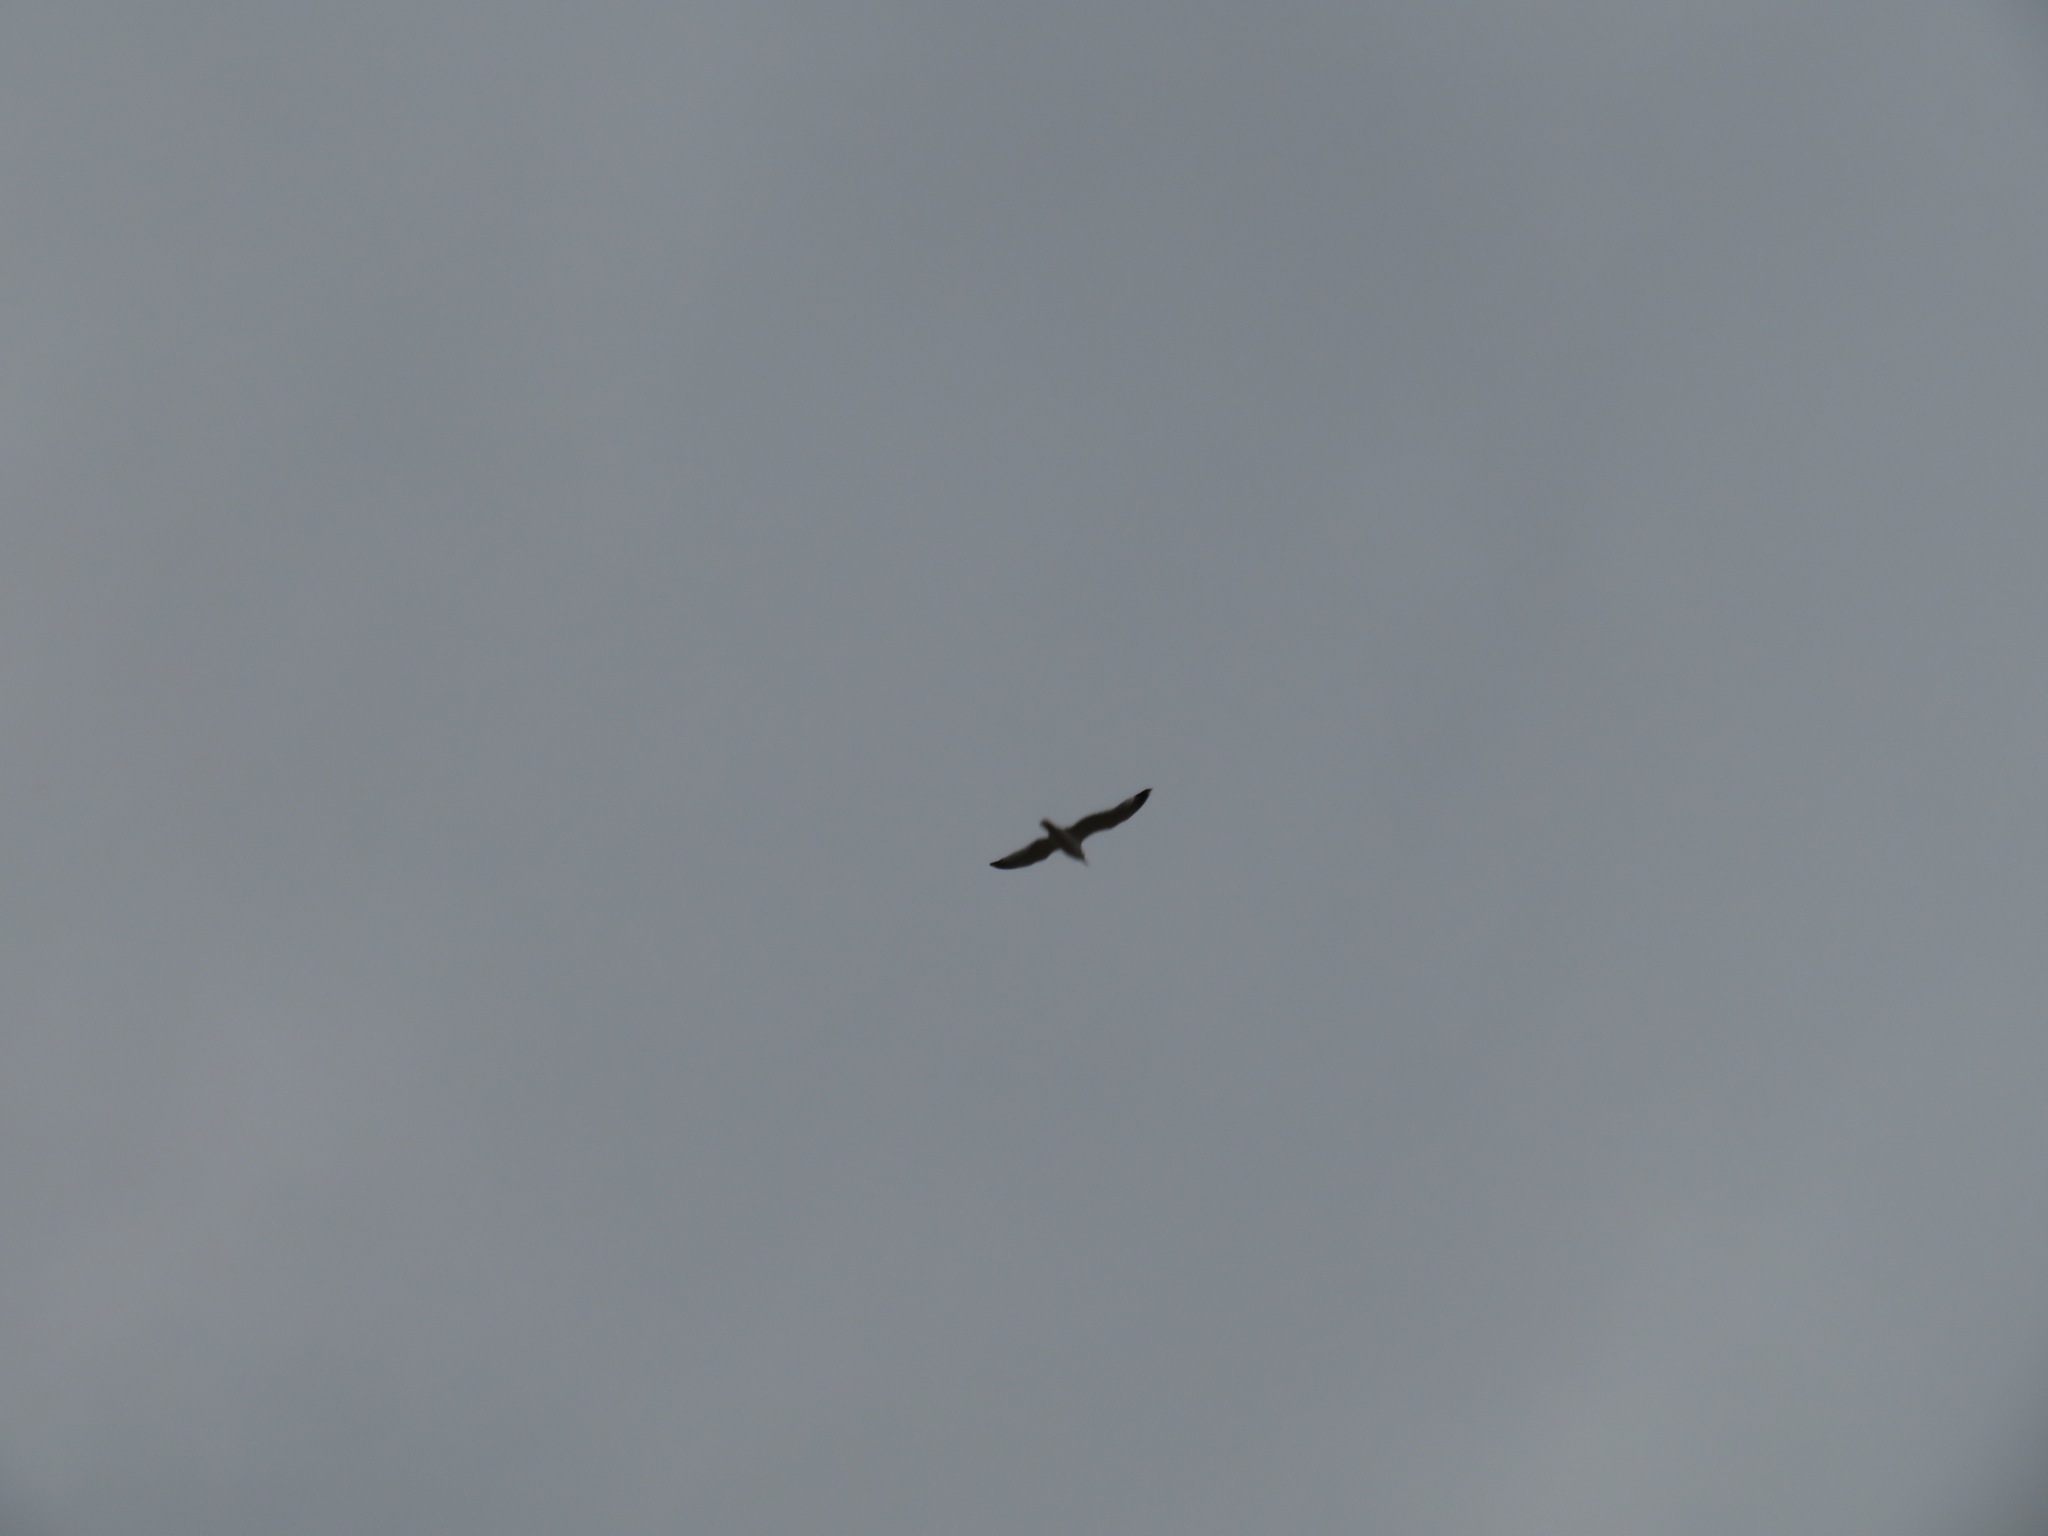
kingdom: Animalia
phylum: Chordata
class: Aves
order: Charadriiformes
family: Laridae
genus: Larus
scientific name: Larus
